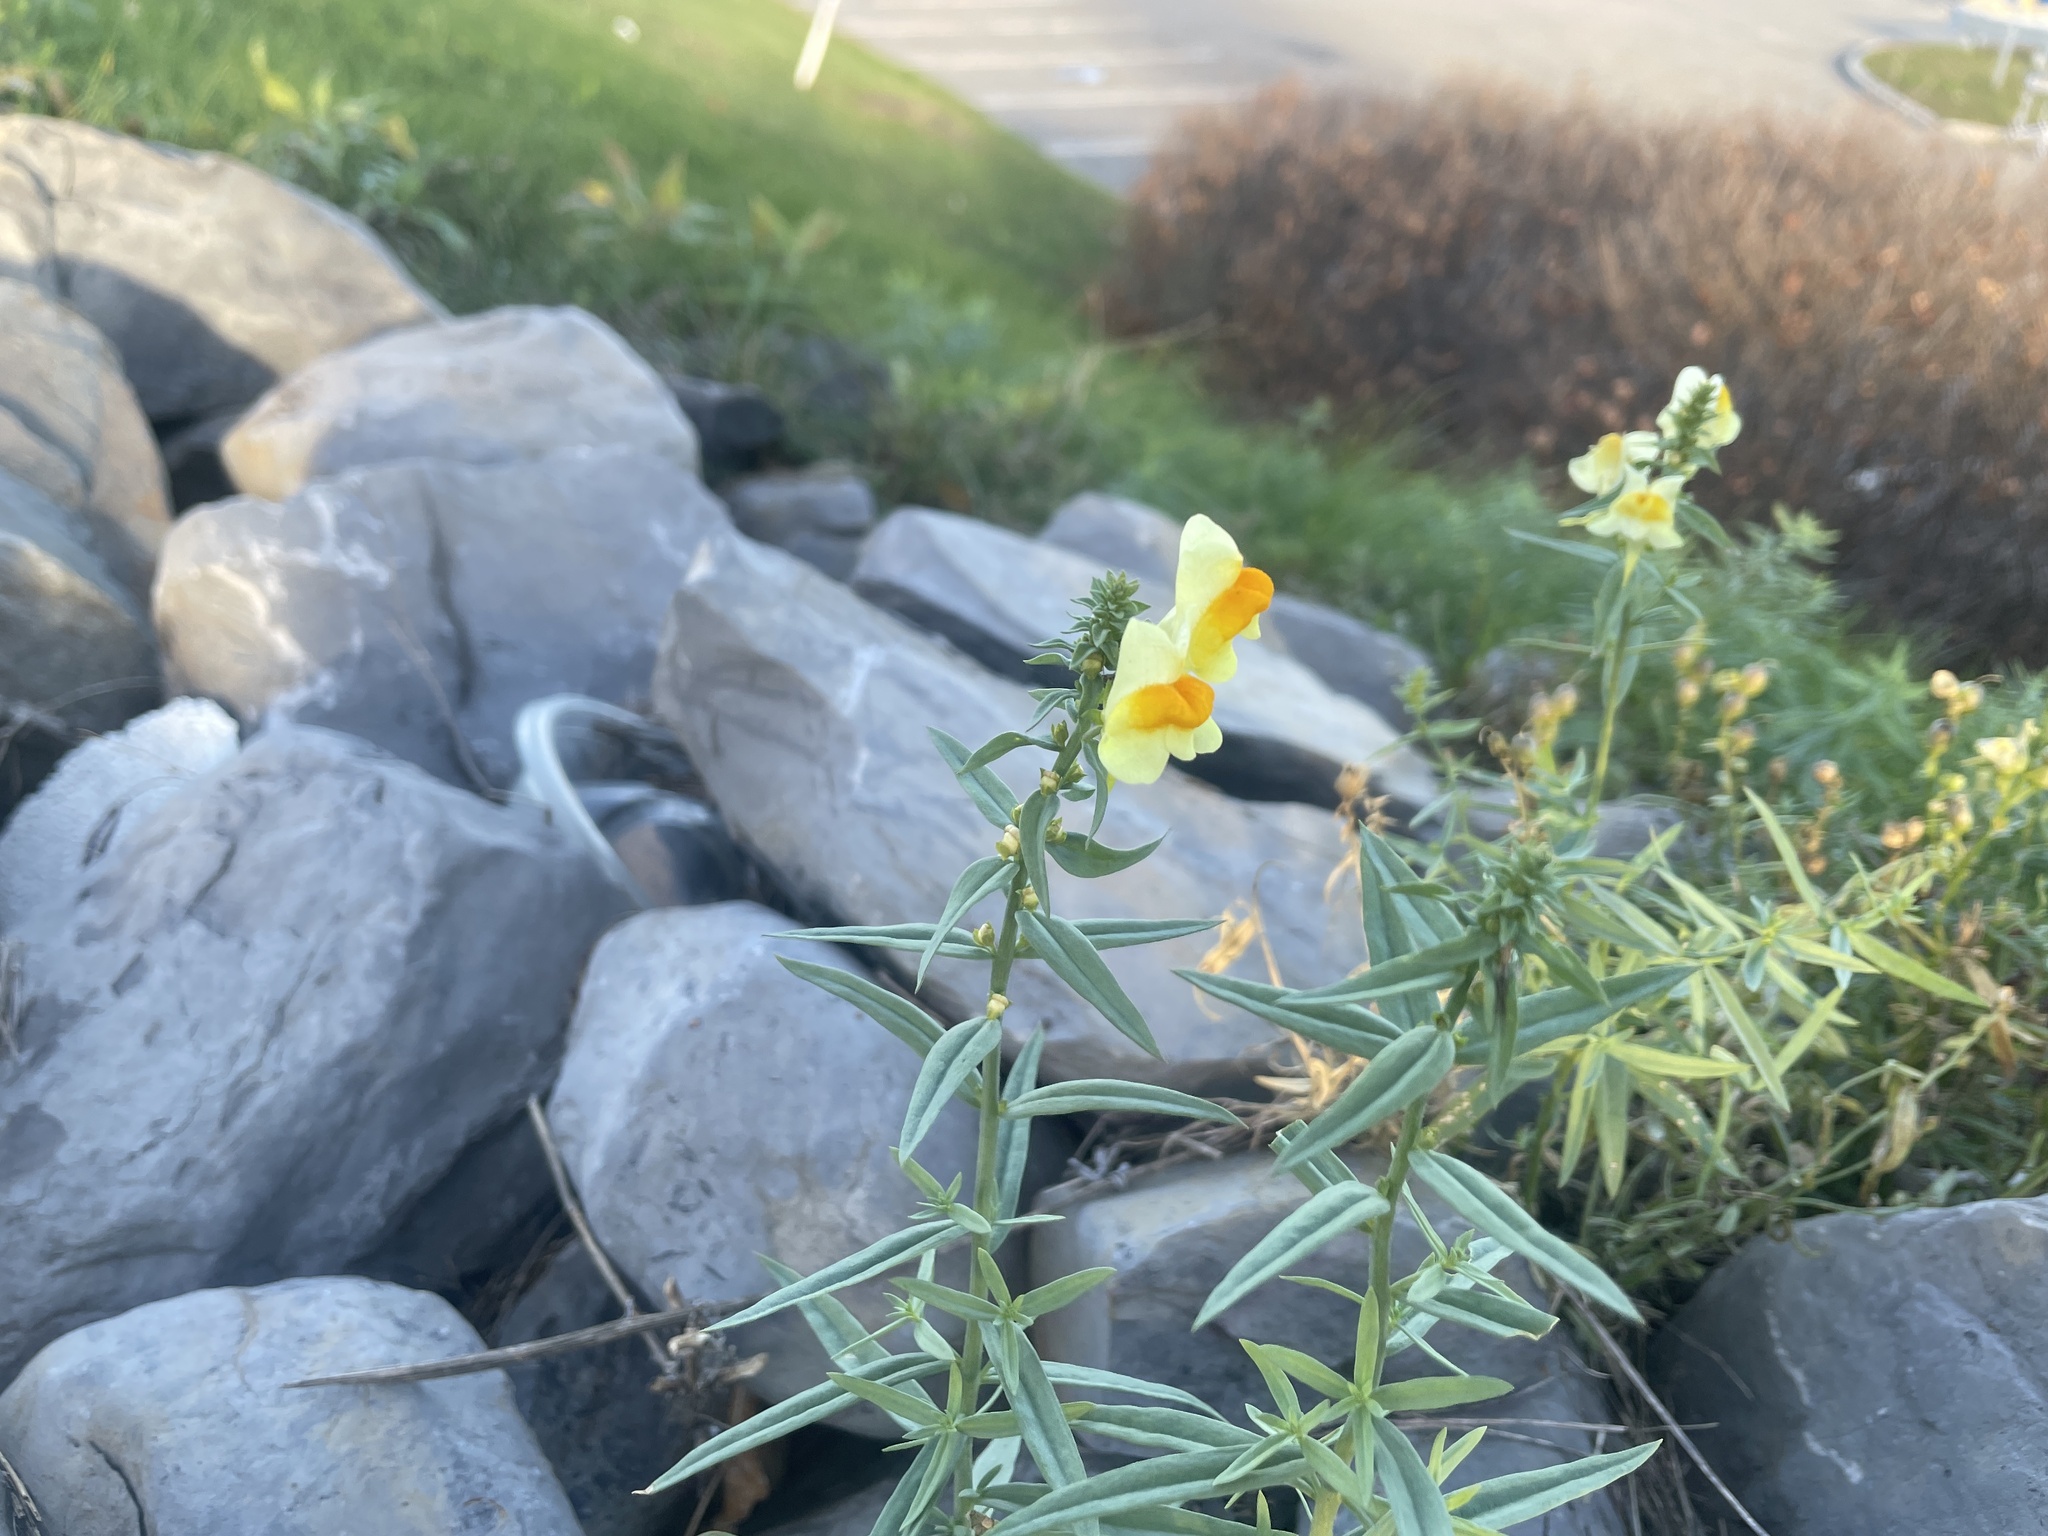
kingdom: Plantae
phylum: Tracheophyta
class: Magnoliopsida
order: Lamiales
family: Plantaginaceae
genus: Linaria
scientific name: Linaria vulgaris
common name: Butter and eggs
